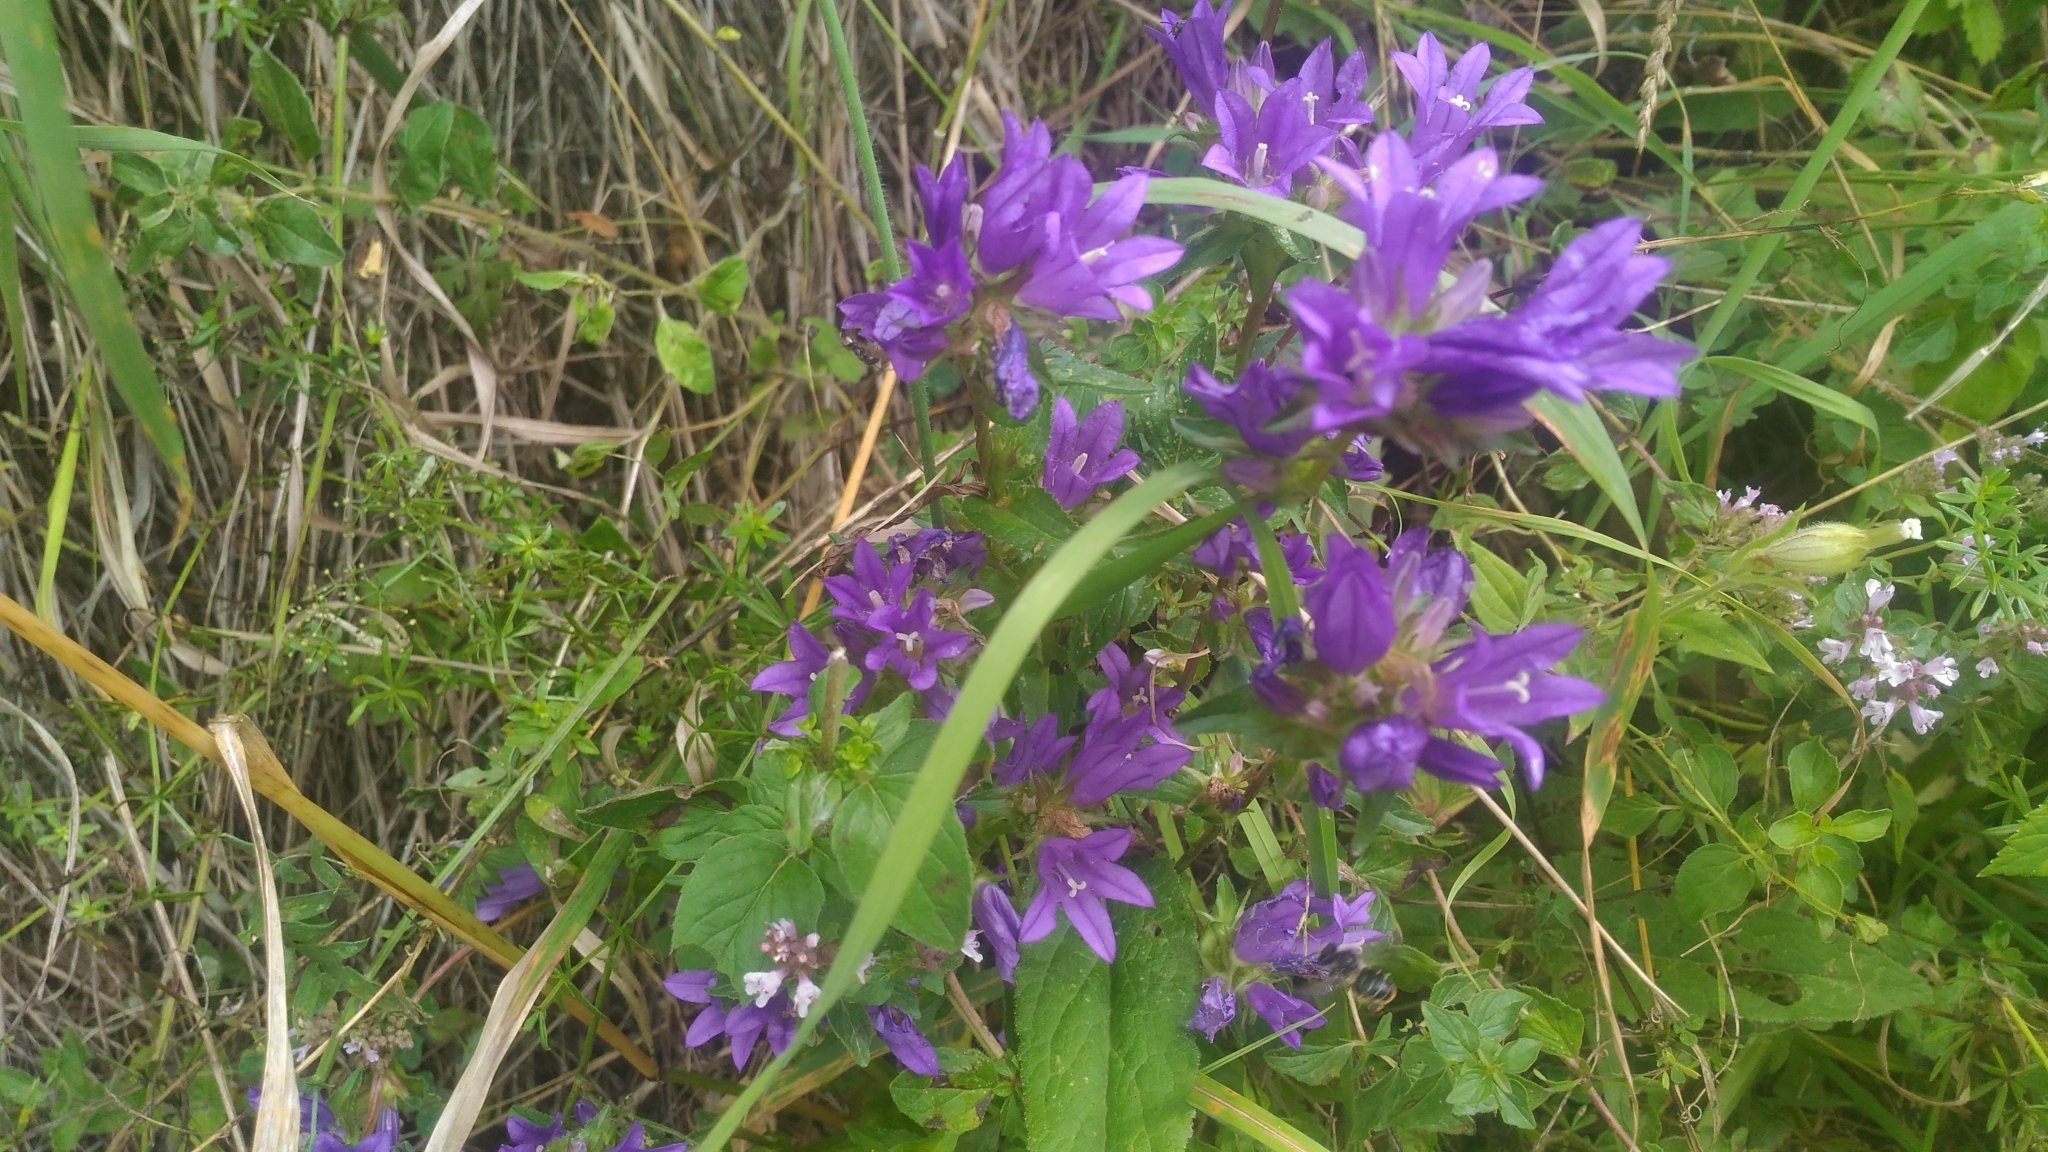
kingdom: Plantae
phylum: Tracheophyta
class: Magnoliopsida
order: Asterales
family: Campanulaceae
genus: Campanula
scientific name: Campanula glomerata
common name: Clustered bellflower
